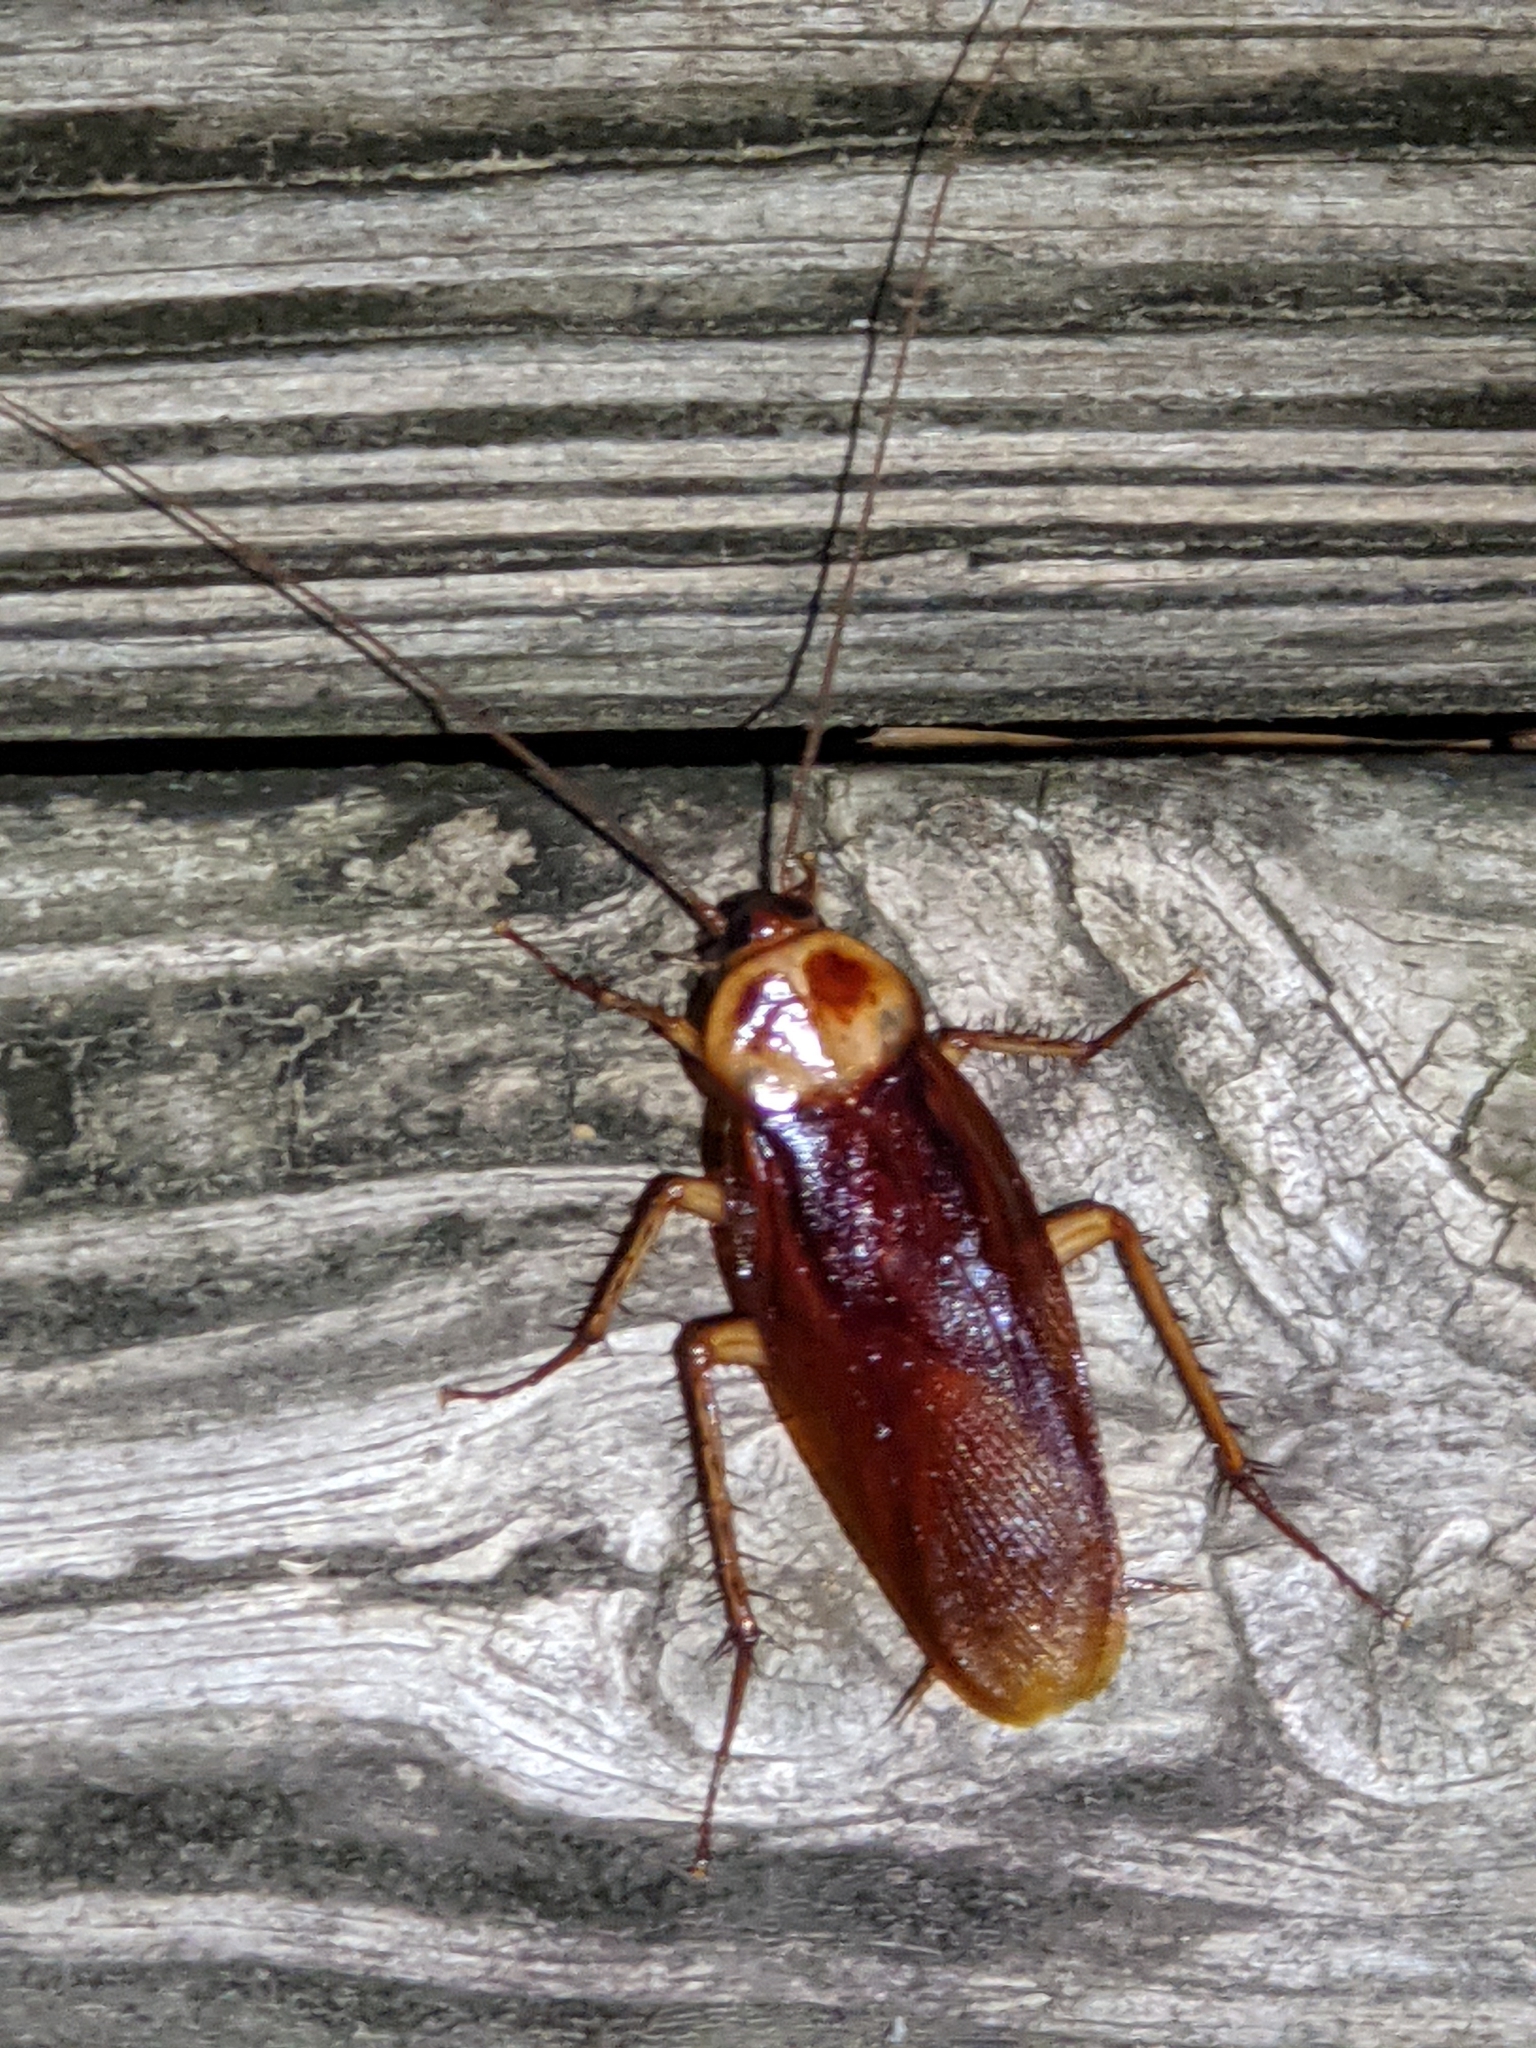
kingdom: Animalia
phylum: Arthropoda
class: Insecta
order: Blattodea
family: Blattidae
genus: Periplaneta
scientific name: Periplaneta americana
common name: American cockroach
